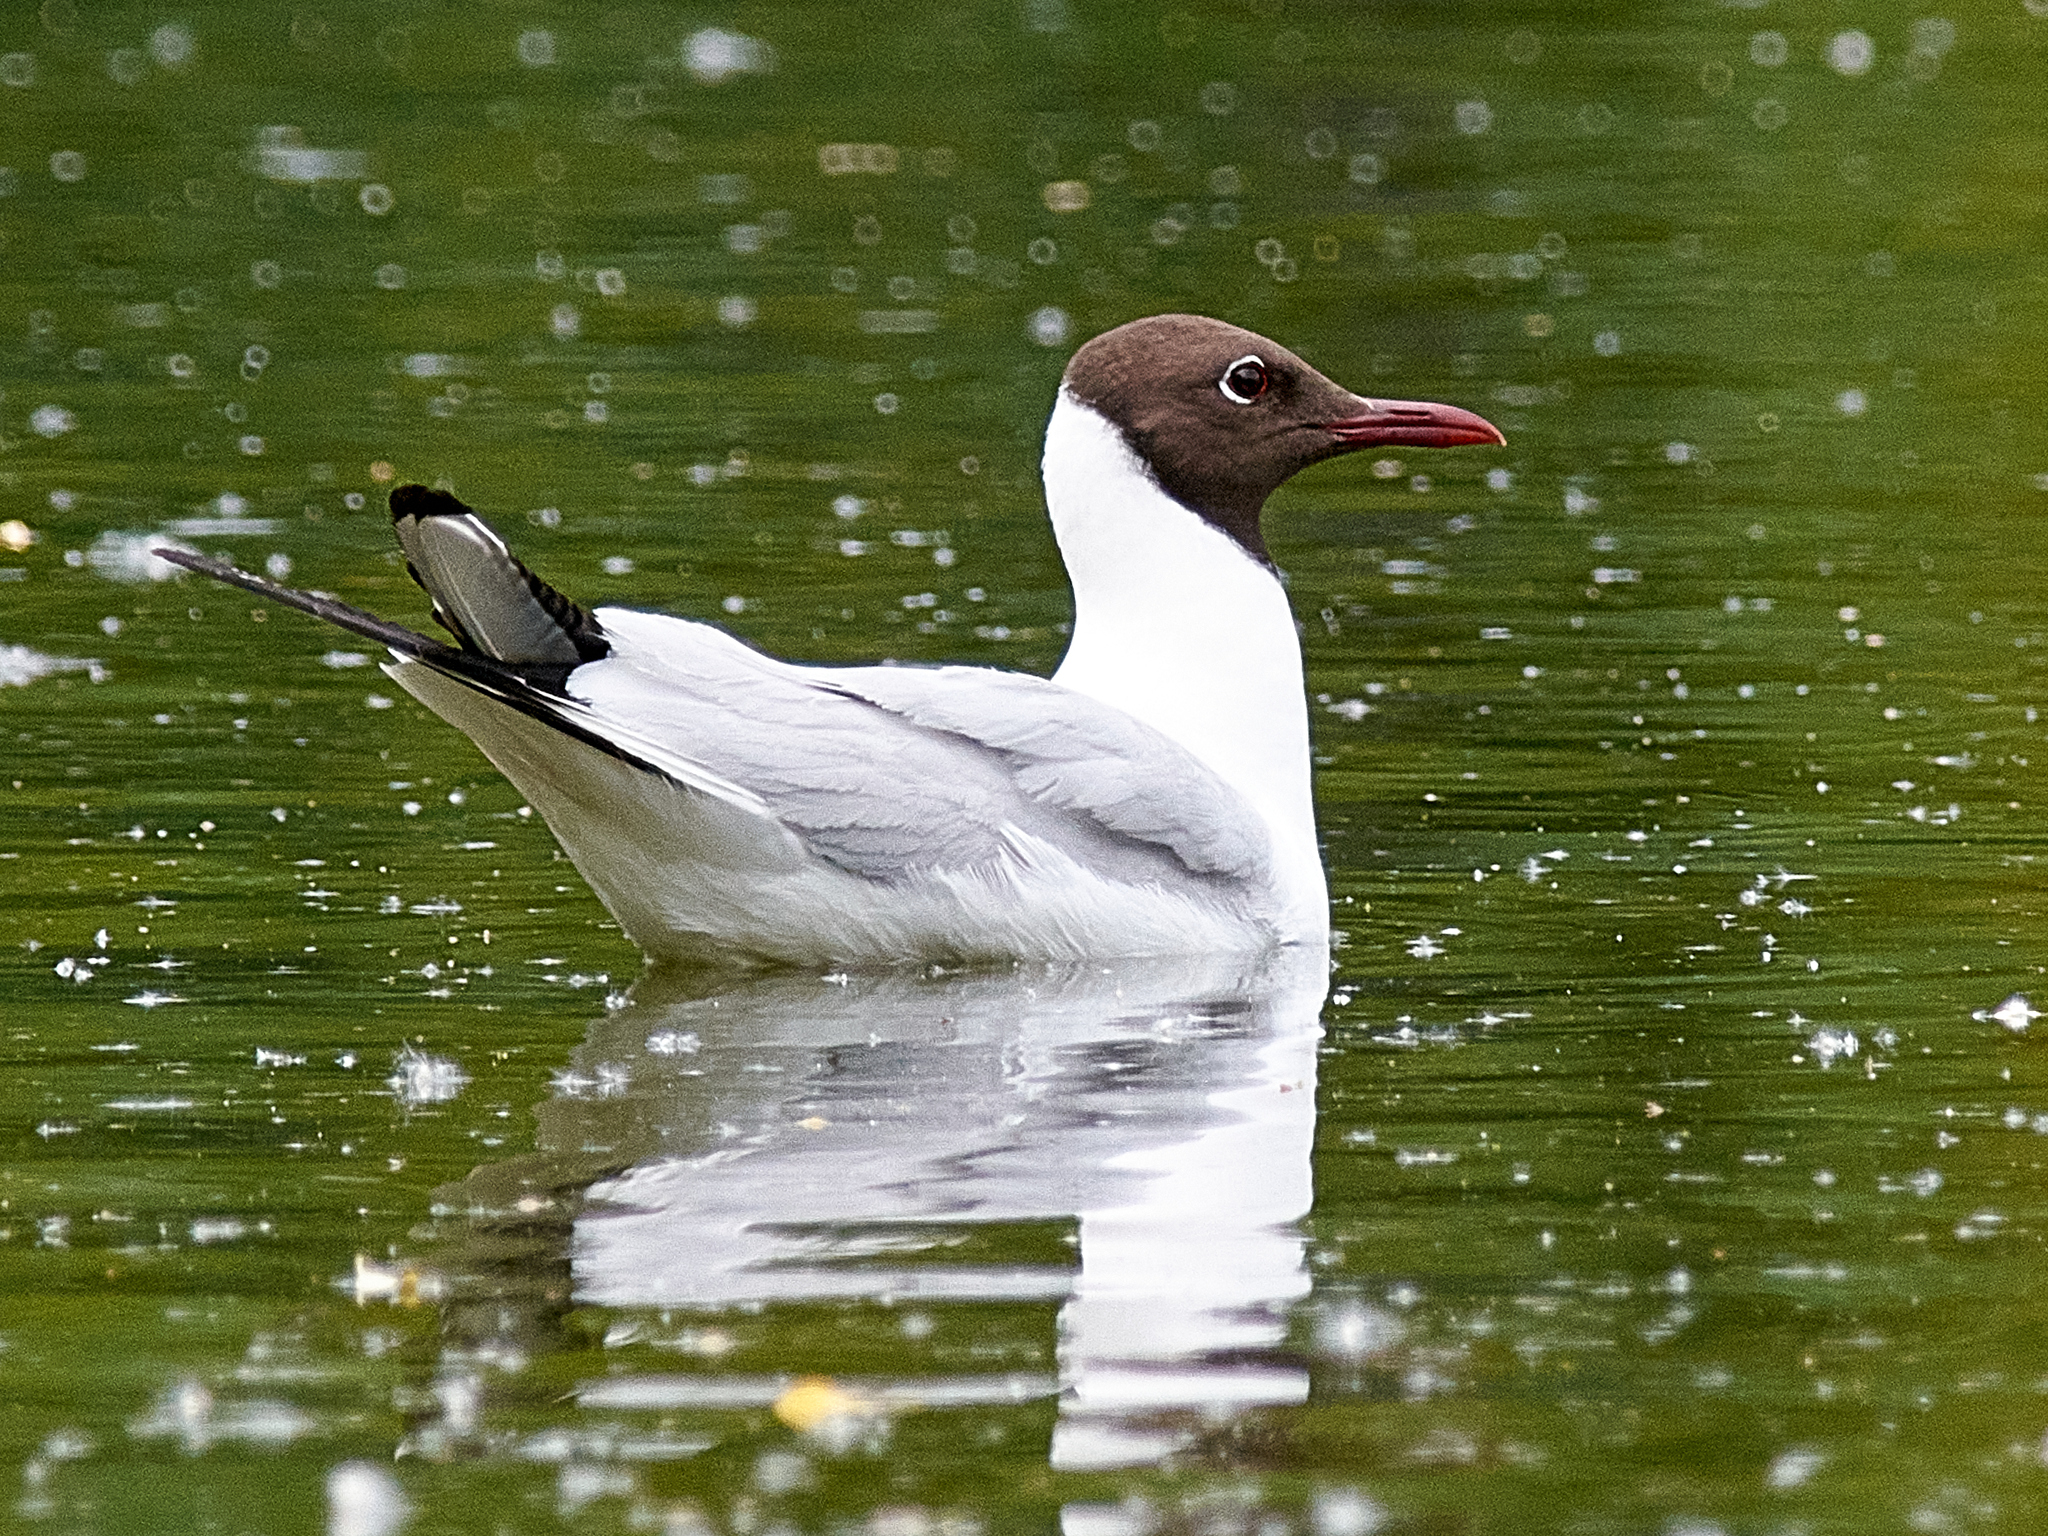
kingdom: Animalia
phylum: Chordata
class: Aves
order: Charadriiformes
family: Laridae
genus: Chroicocephalus
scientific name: Chroicocephalus ridibundus
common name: Black-headed gull
